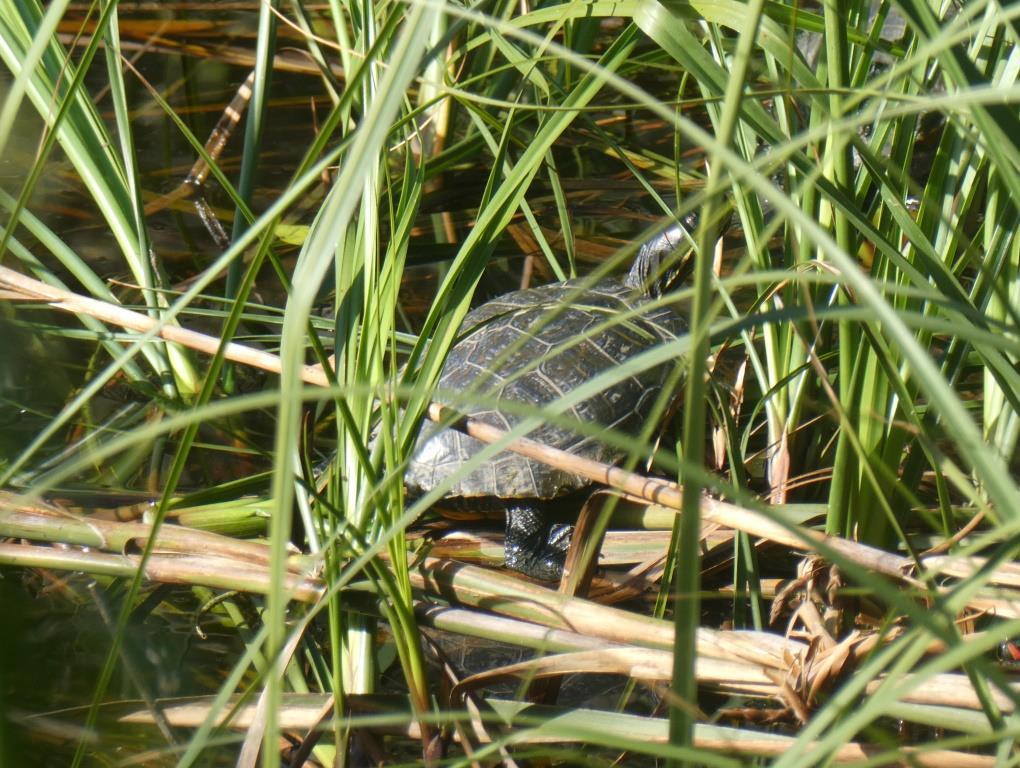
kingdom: Animalia
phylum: Chordata
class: Testudines
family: Emydidae
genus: Trachemys
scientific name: Trachemys scripta
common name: Slider
